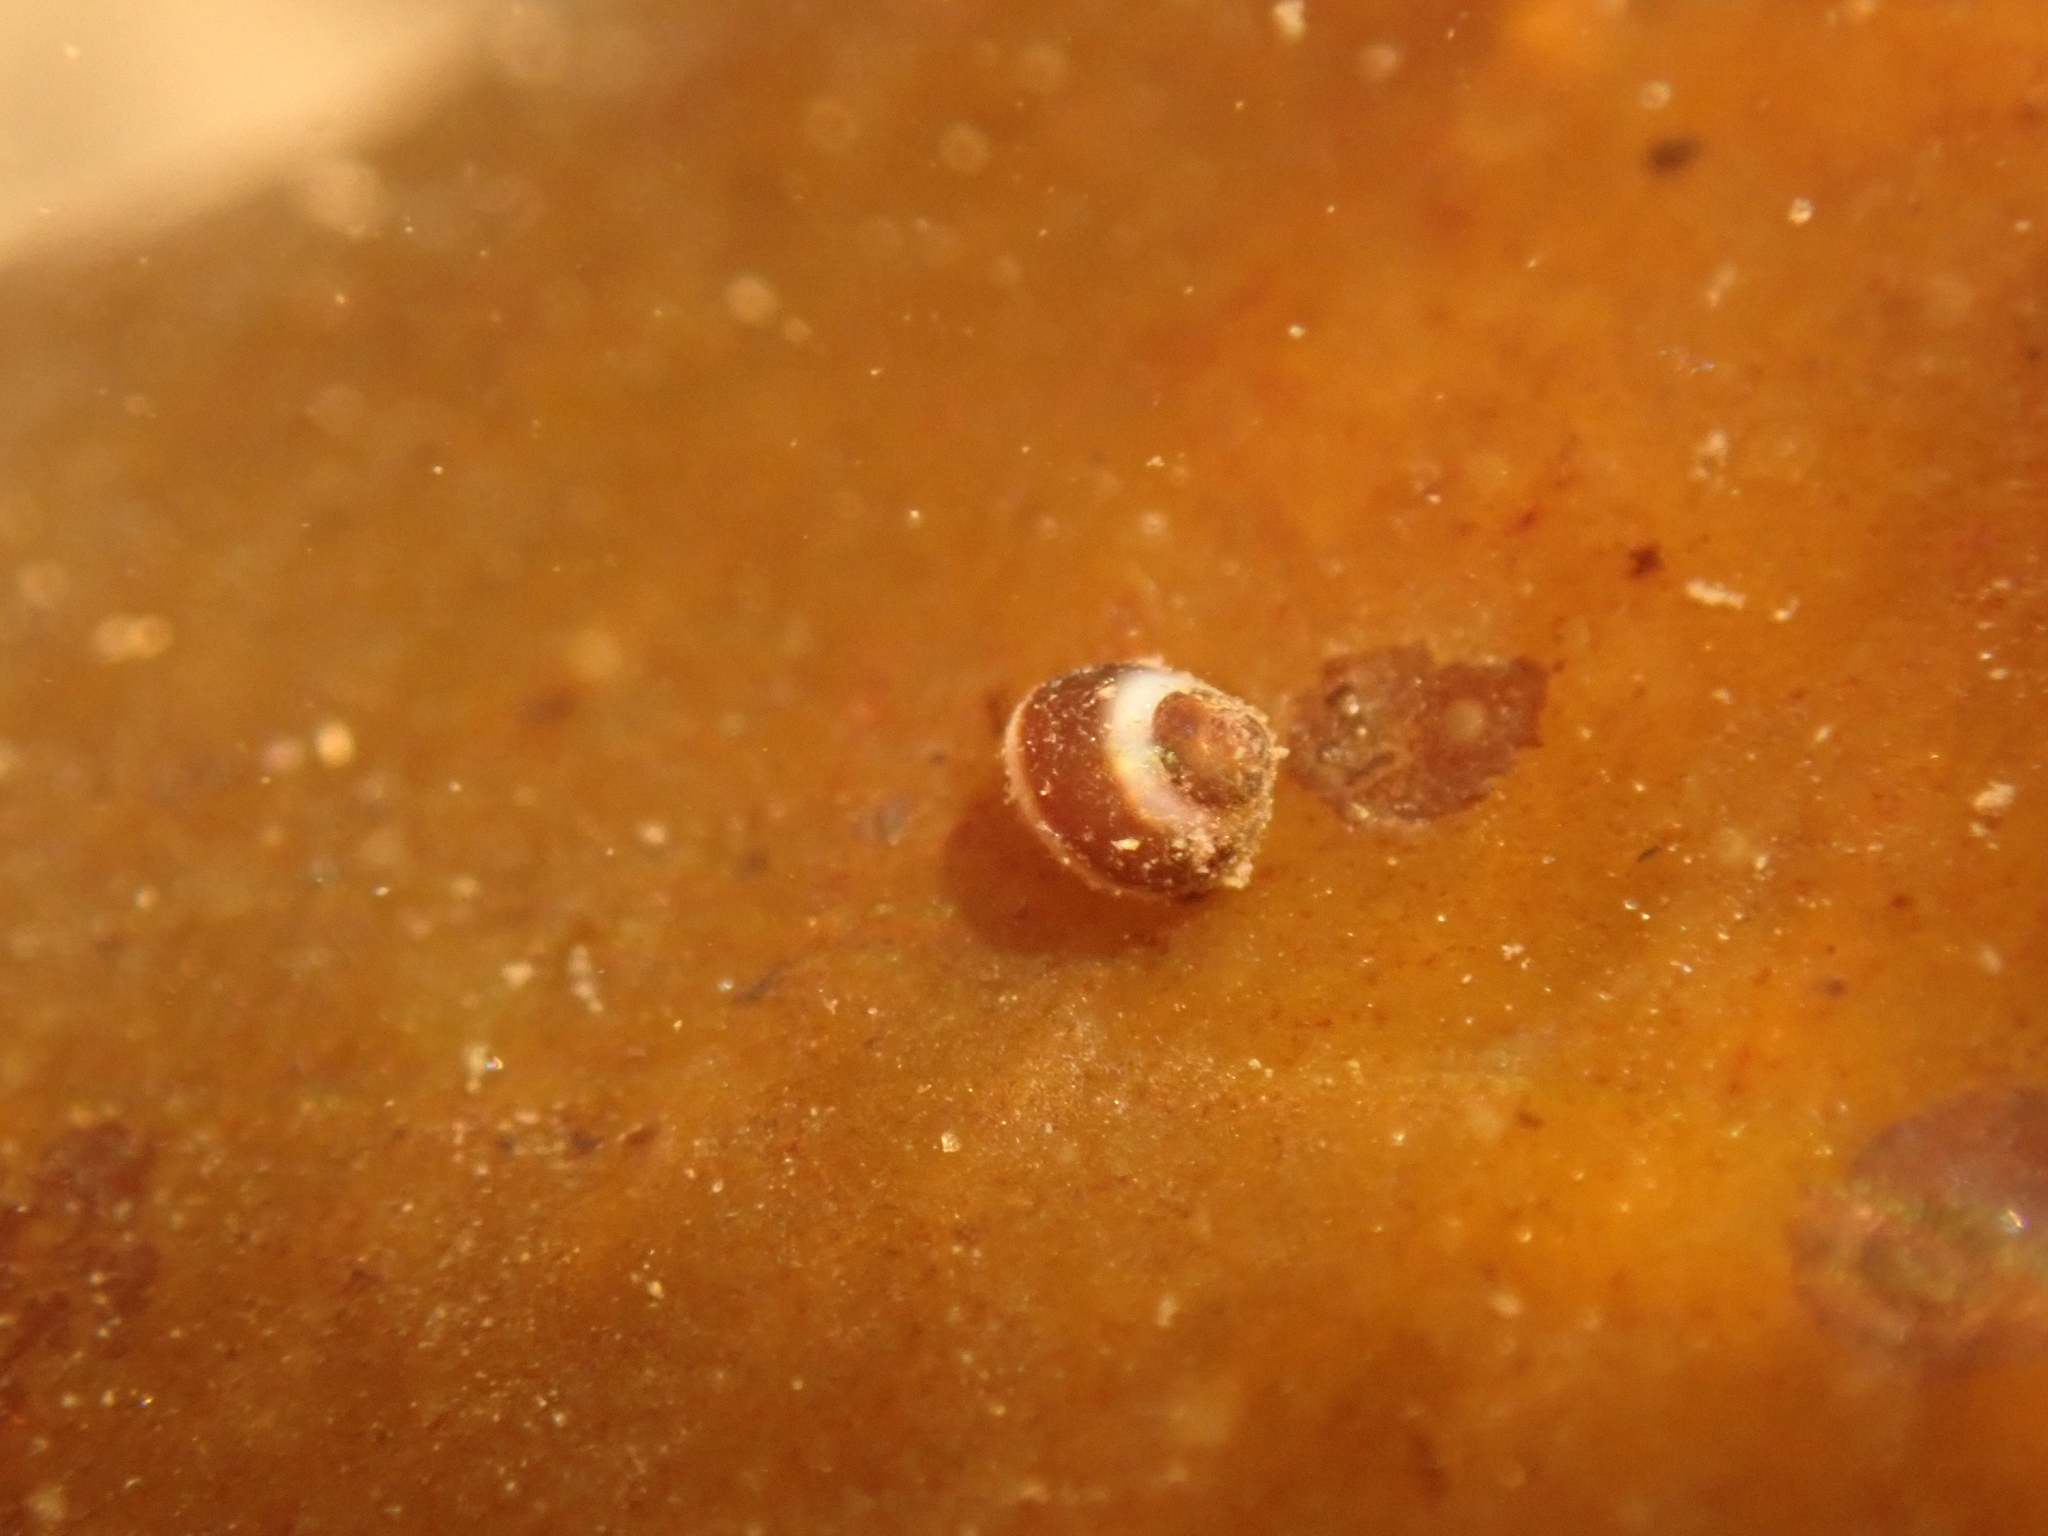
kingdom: Animalia
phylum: Mollusca
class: Gastropoda
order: Littorinimorpha
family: Littorinidae
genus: Lacuna
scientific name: Lacuna vincta
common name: Banded chink shell
